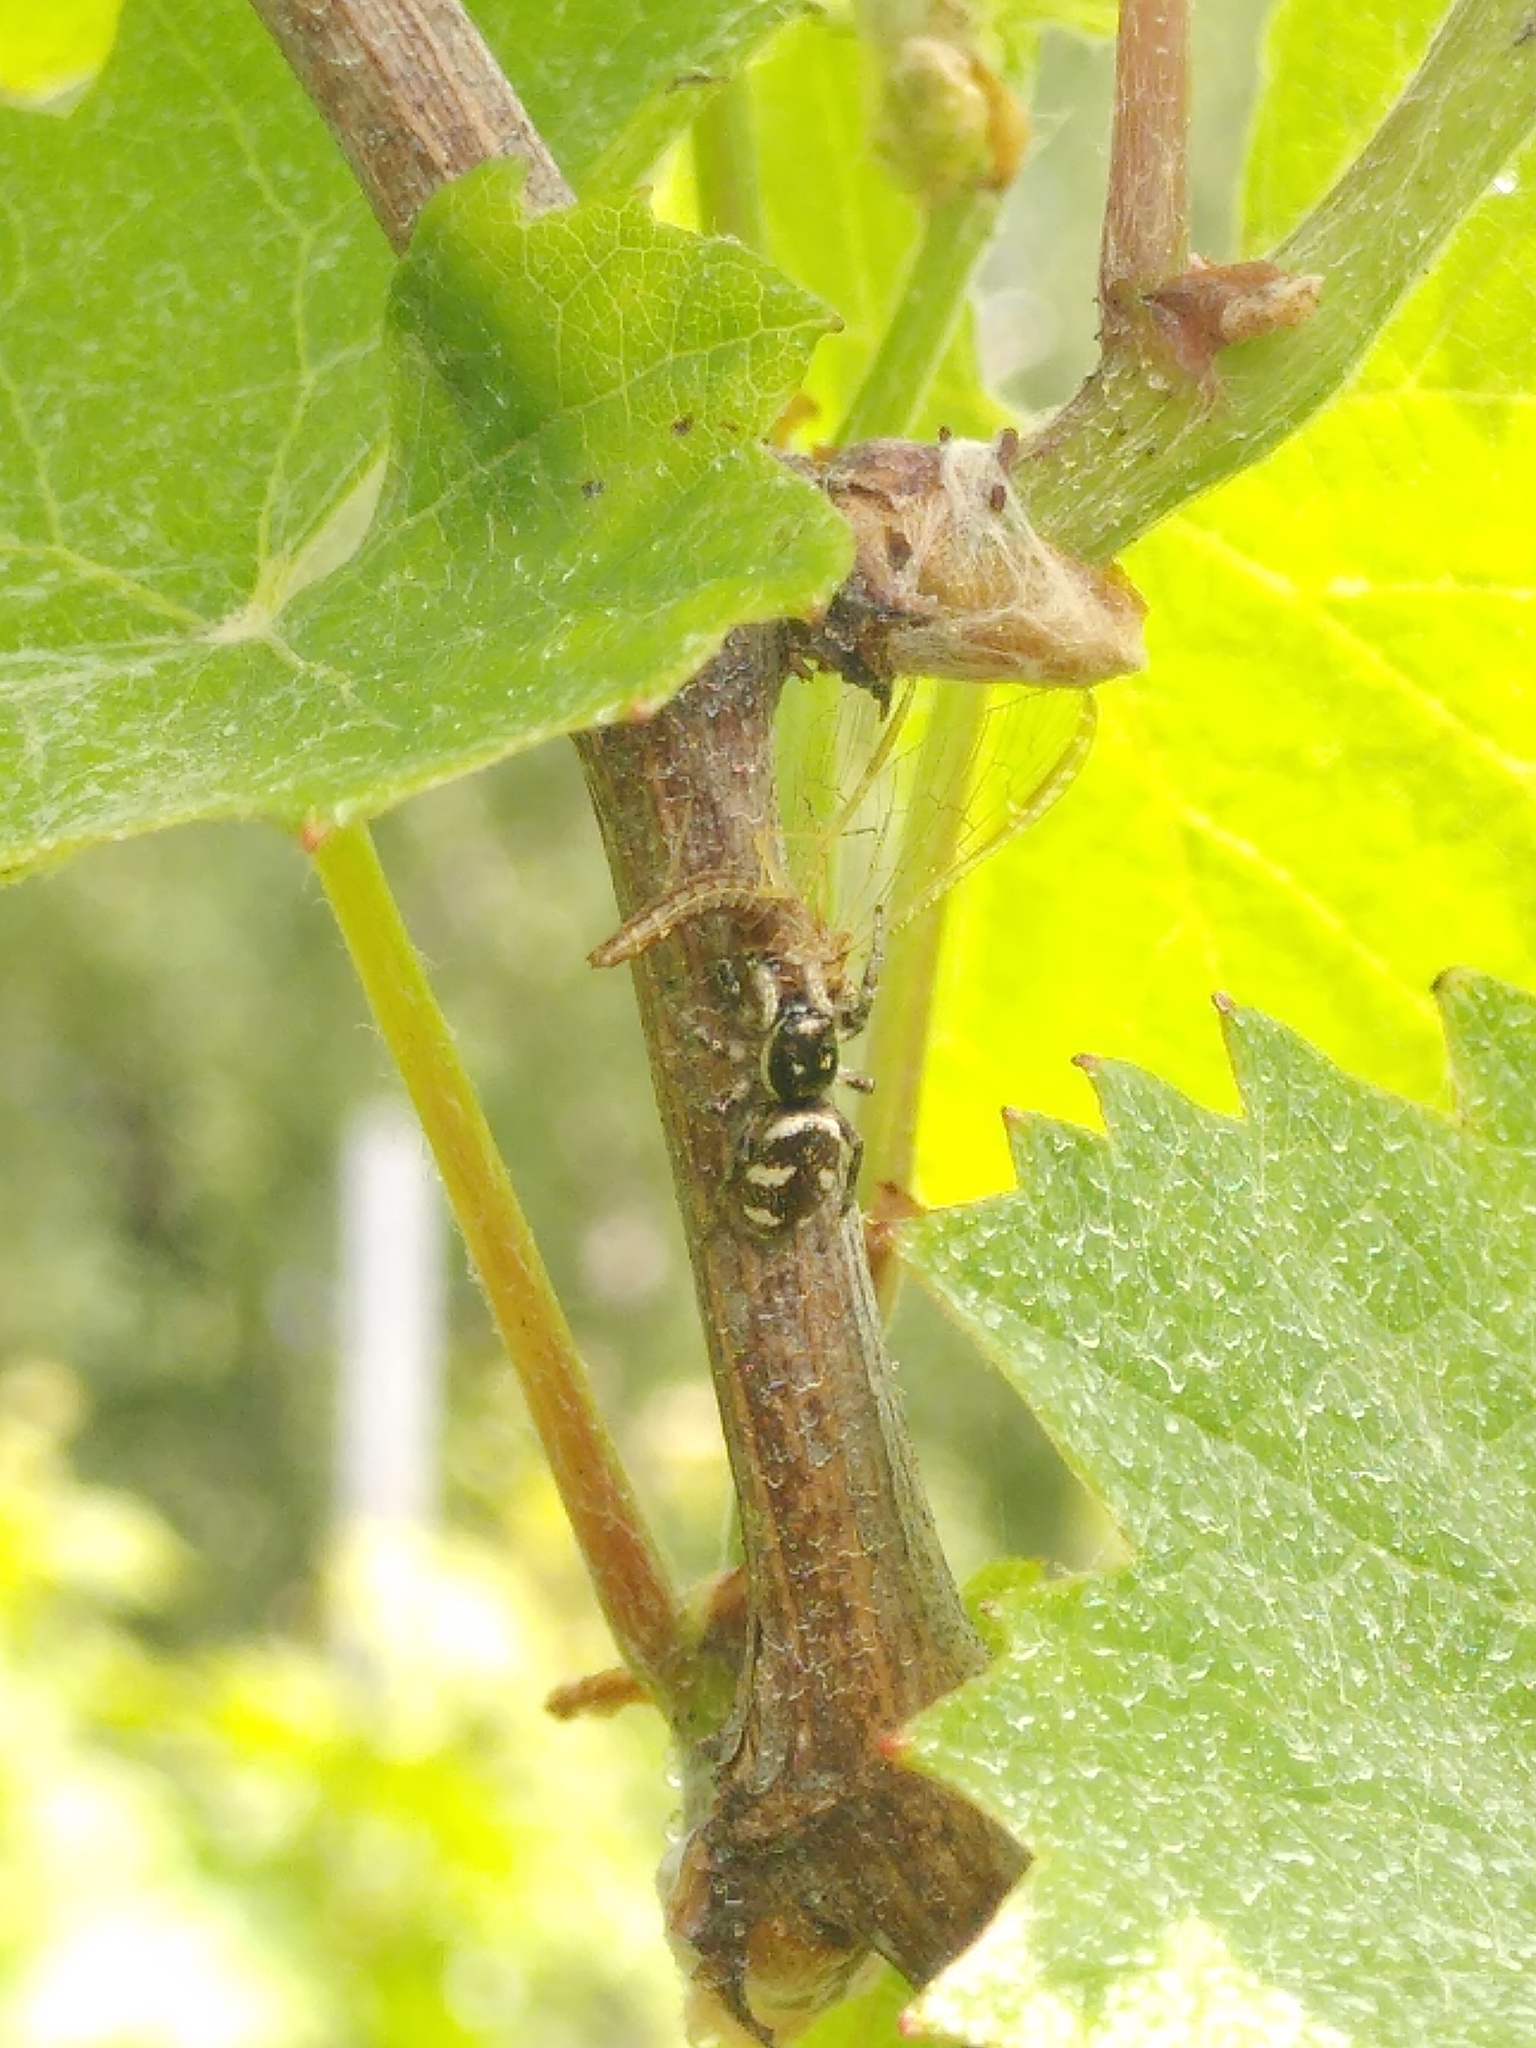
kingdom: Animalia
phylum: Arthropoda
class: Arachnida
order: Araneae
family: Salticidae
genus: Salticus
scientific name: Salticus scenicus
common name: Zebra jumper
